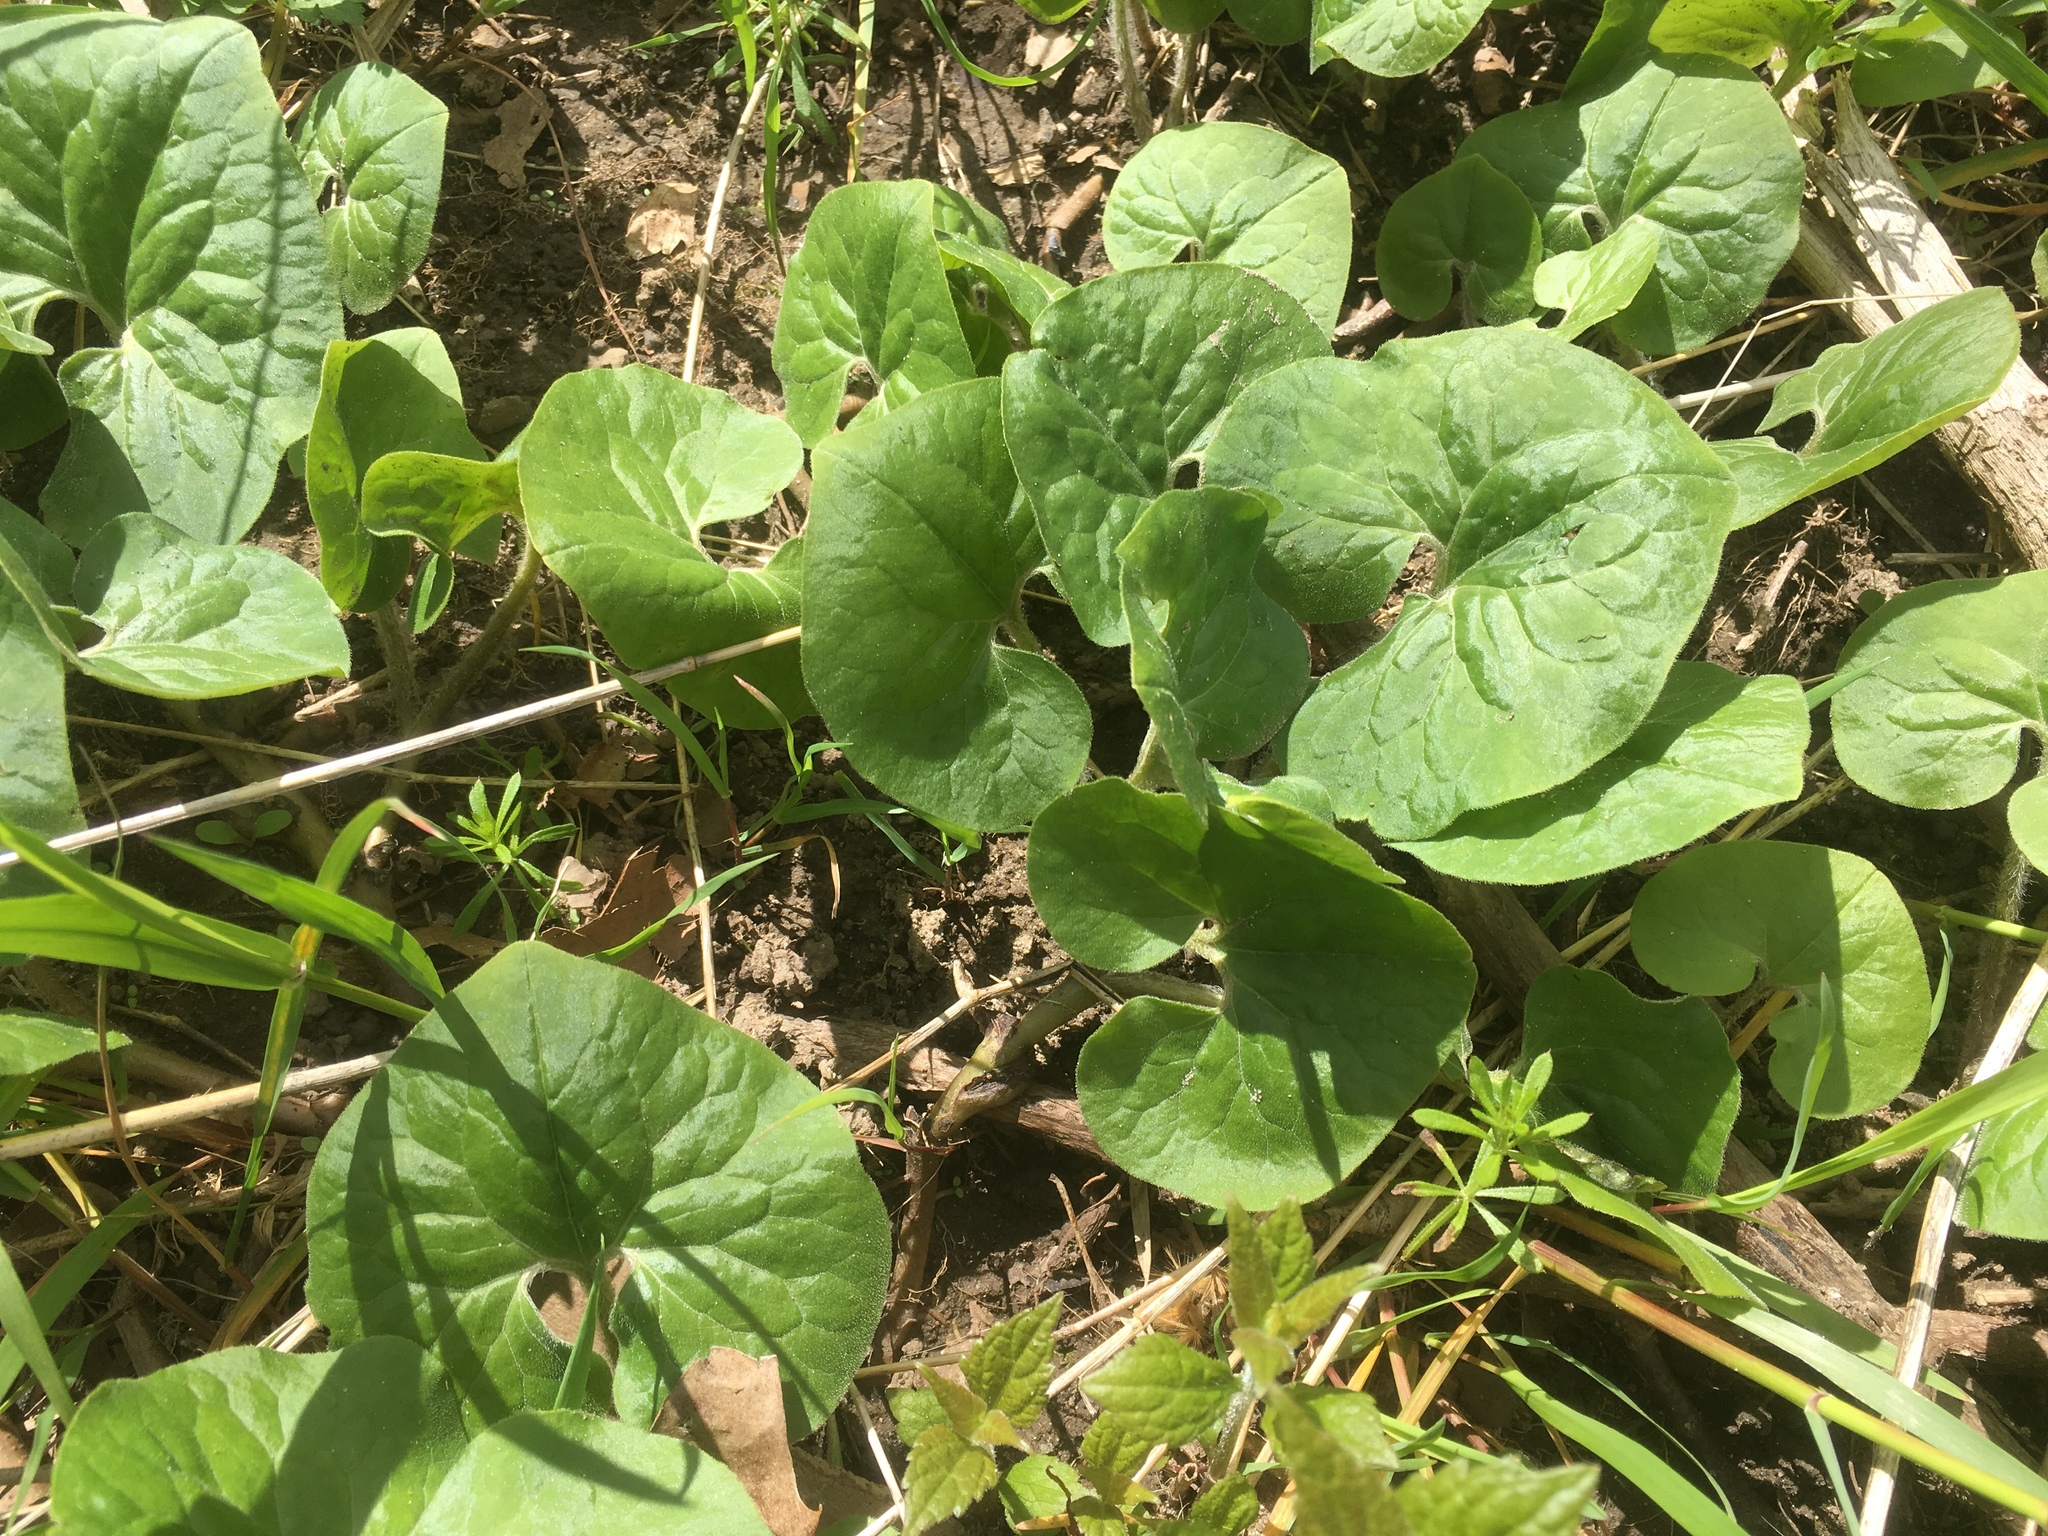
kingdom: Plantae
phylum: Tracheophyta
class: Magnoliopsida
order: Piperales
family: Aristolochiaceae
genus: Asarum
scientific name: Asarum canadense
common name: Wild ginger
